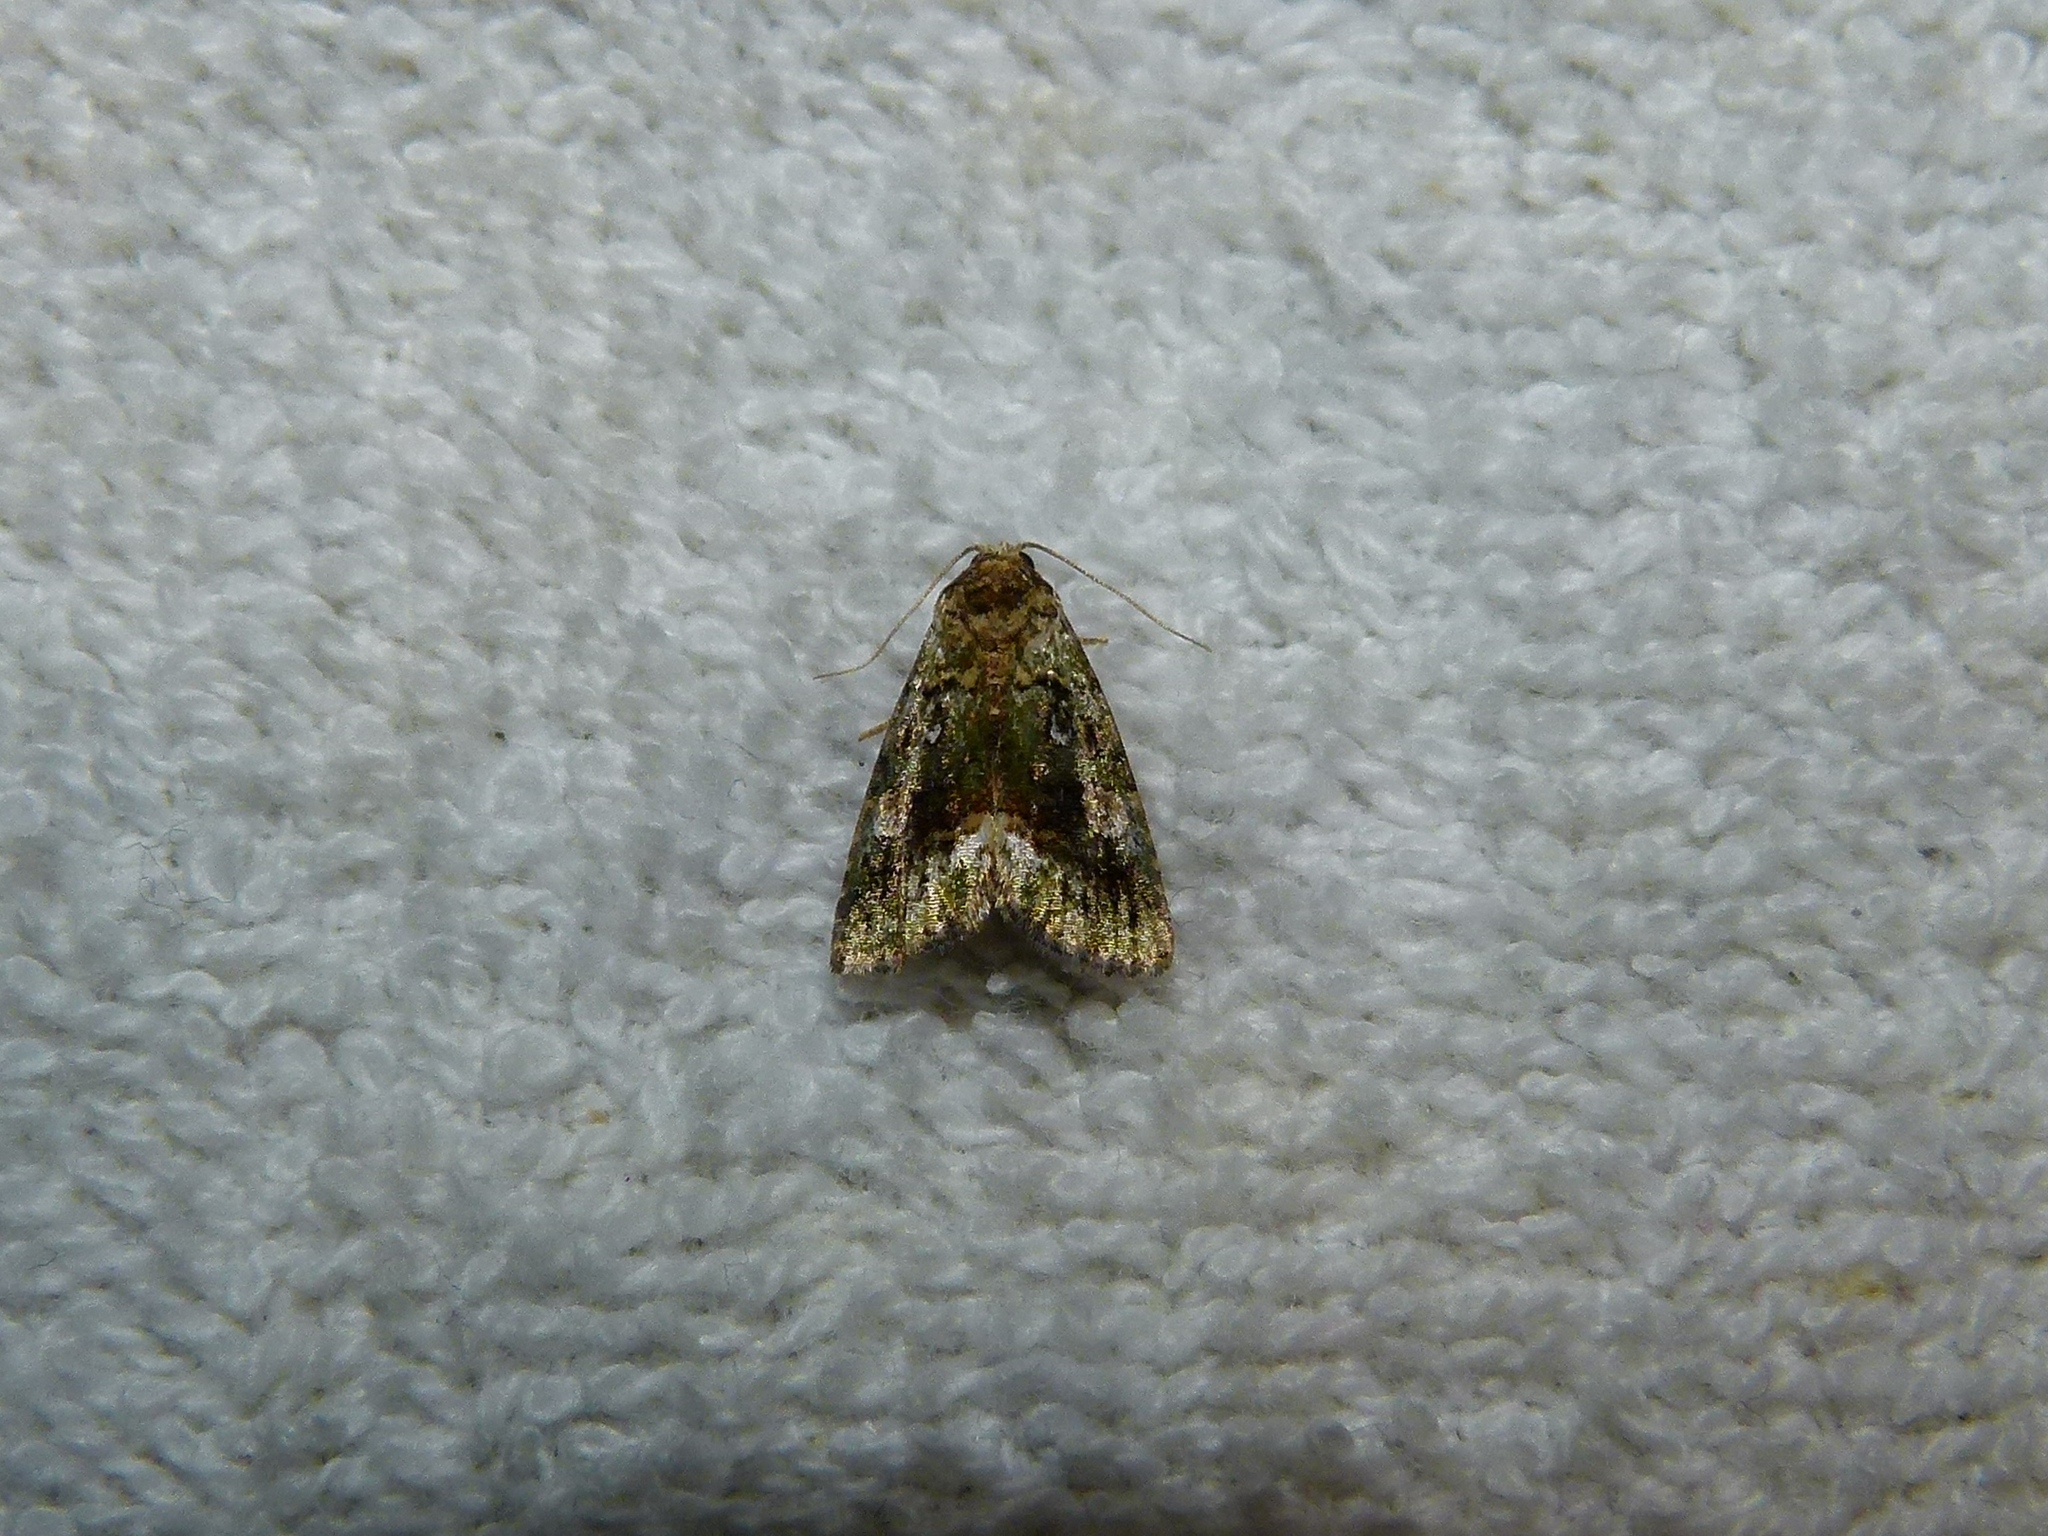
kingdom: Animalia
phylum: Arthropoda
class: Insecta
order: Lepidoptera
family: Noctuidae
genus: Lithacodia
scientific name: Lithacodia musta
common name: Small mossy glyph
